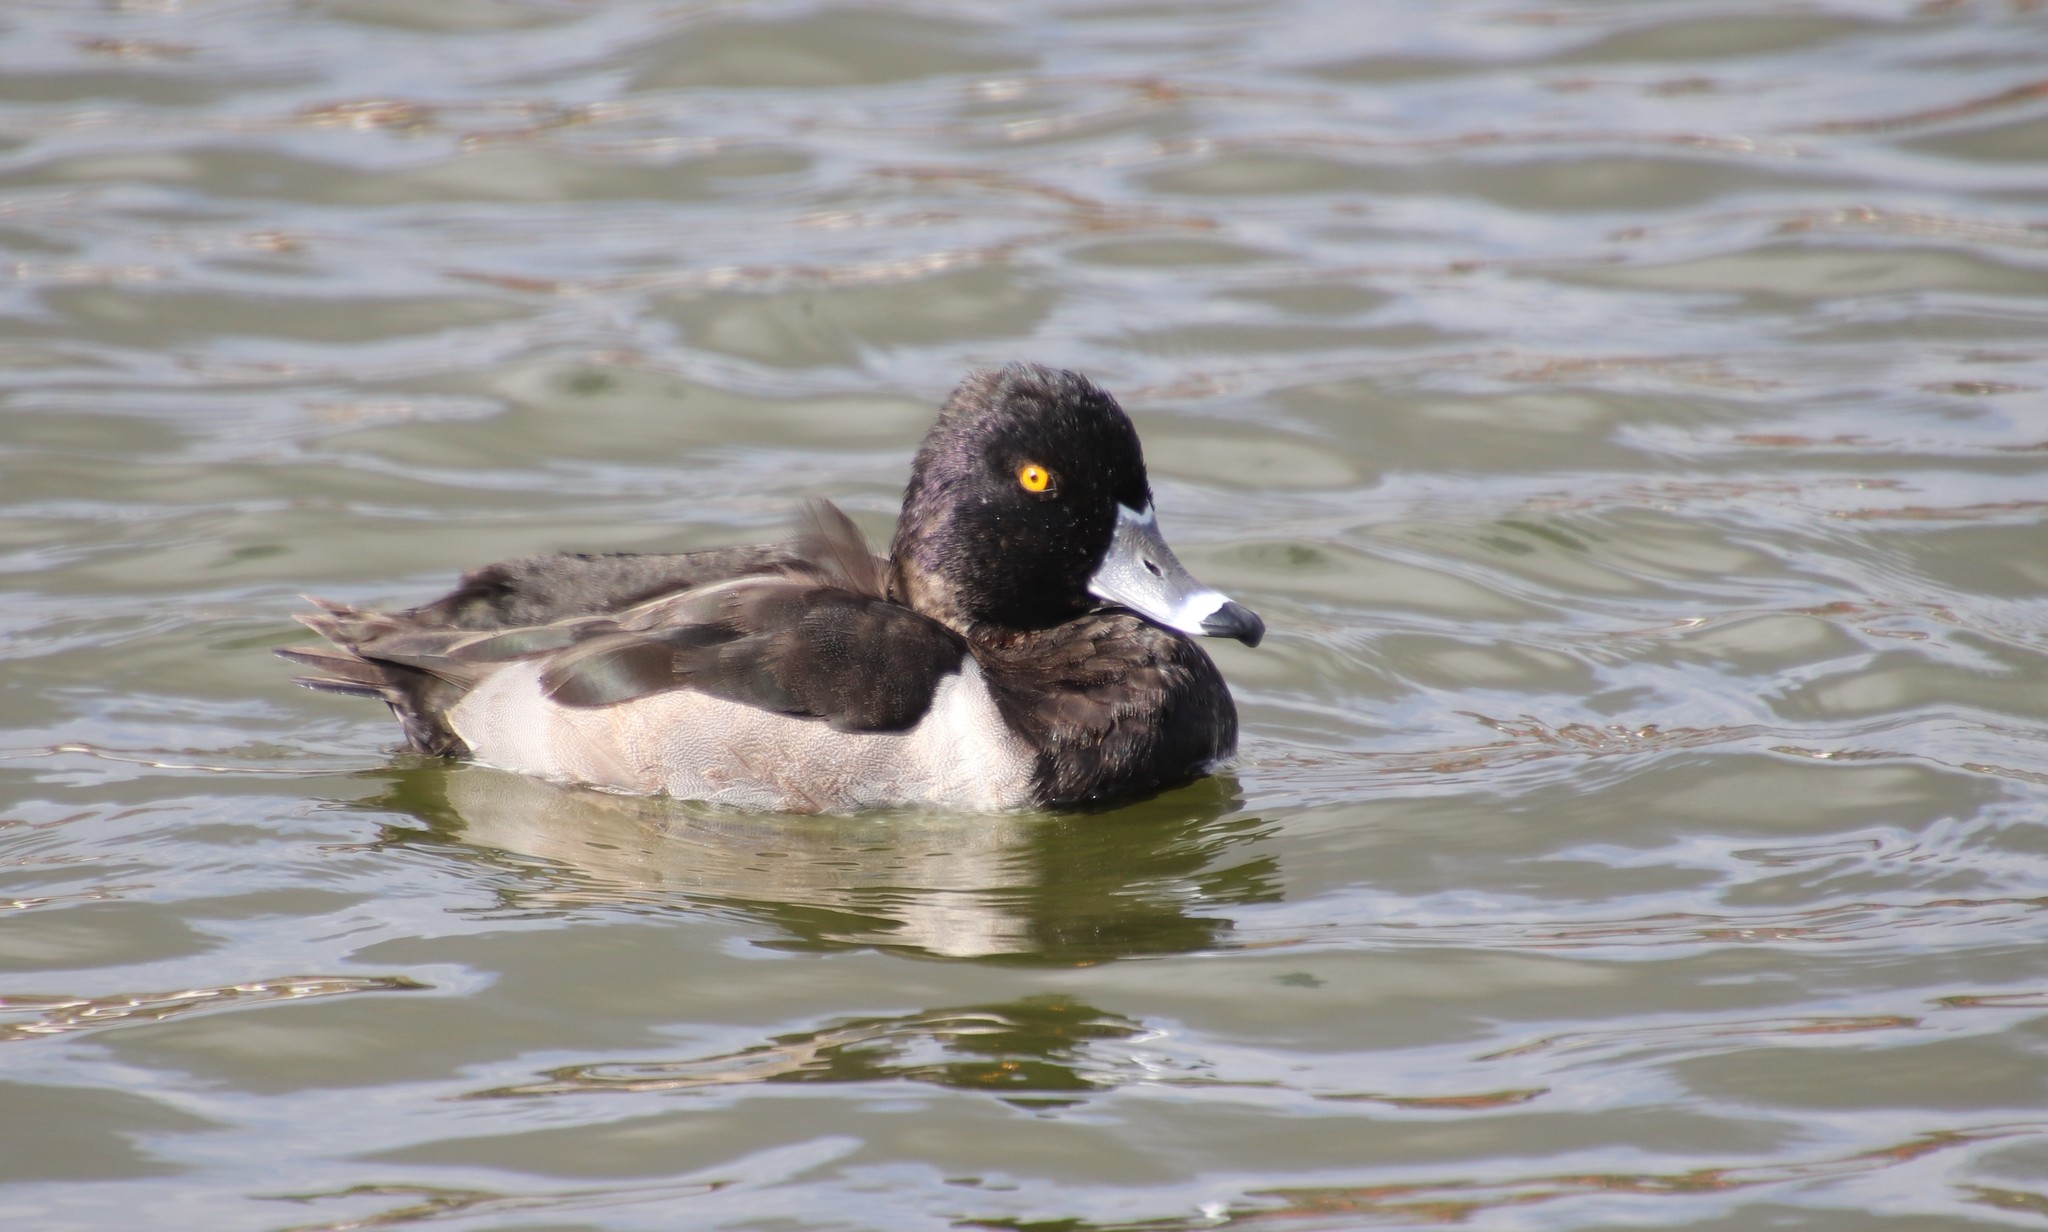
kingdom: Animalia
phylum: Chordata
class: Aves
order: Anseriformes
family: Anatidae
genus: Aythya
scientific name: Aythya collaris
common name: Ring-necked duck
